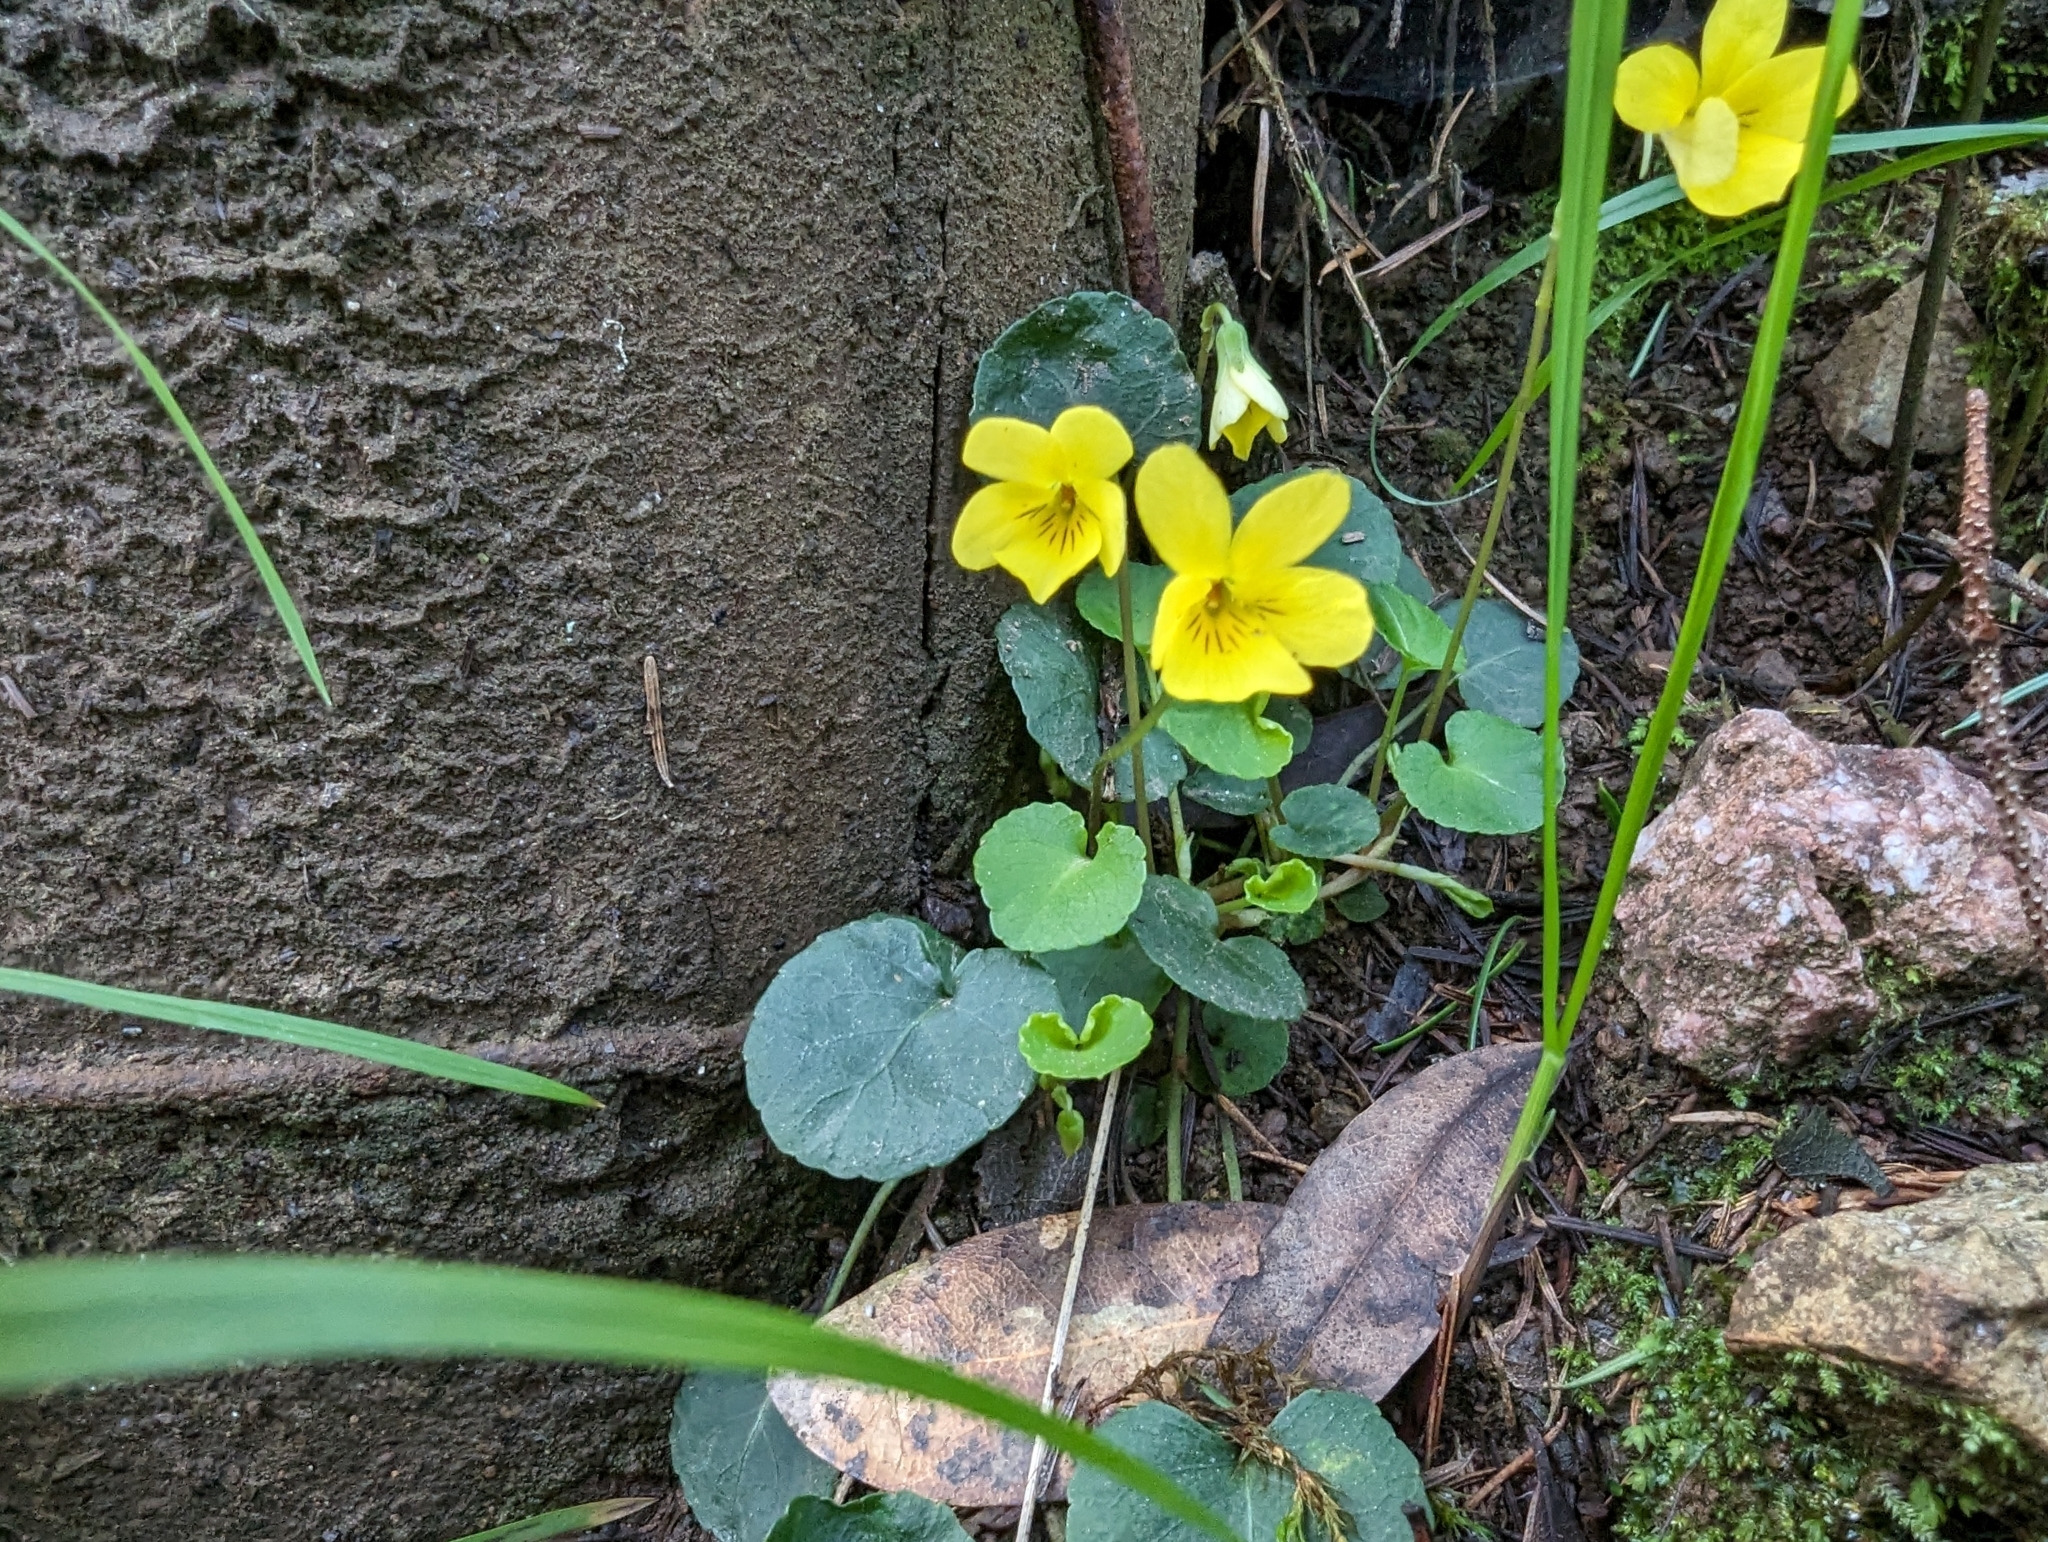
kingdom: Plantae
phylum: Tracheophyta
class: Magnoliopsida
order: Malpighiales
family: Violaceae
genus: Viola
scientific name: Viola sempervirens
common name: Evergreen violet
